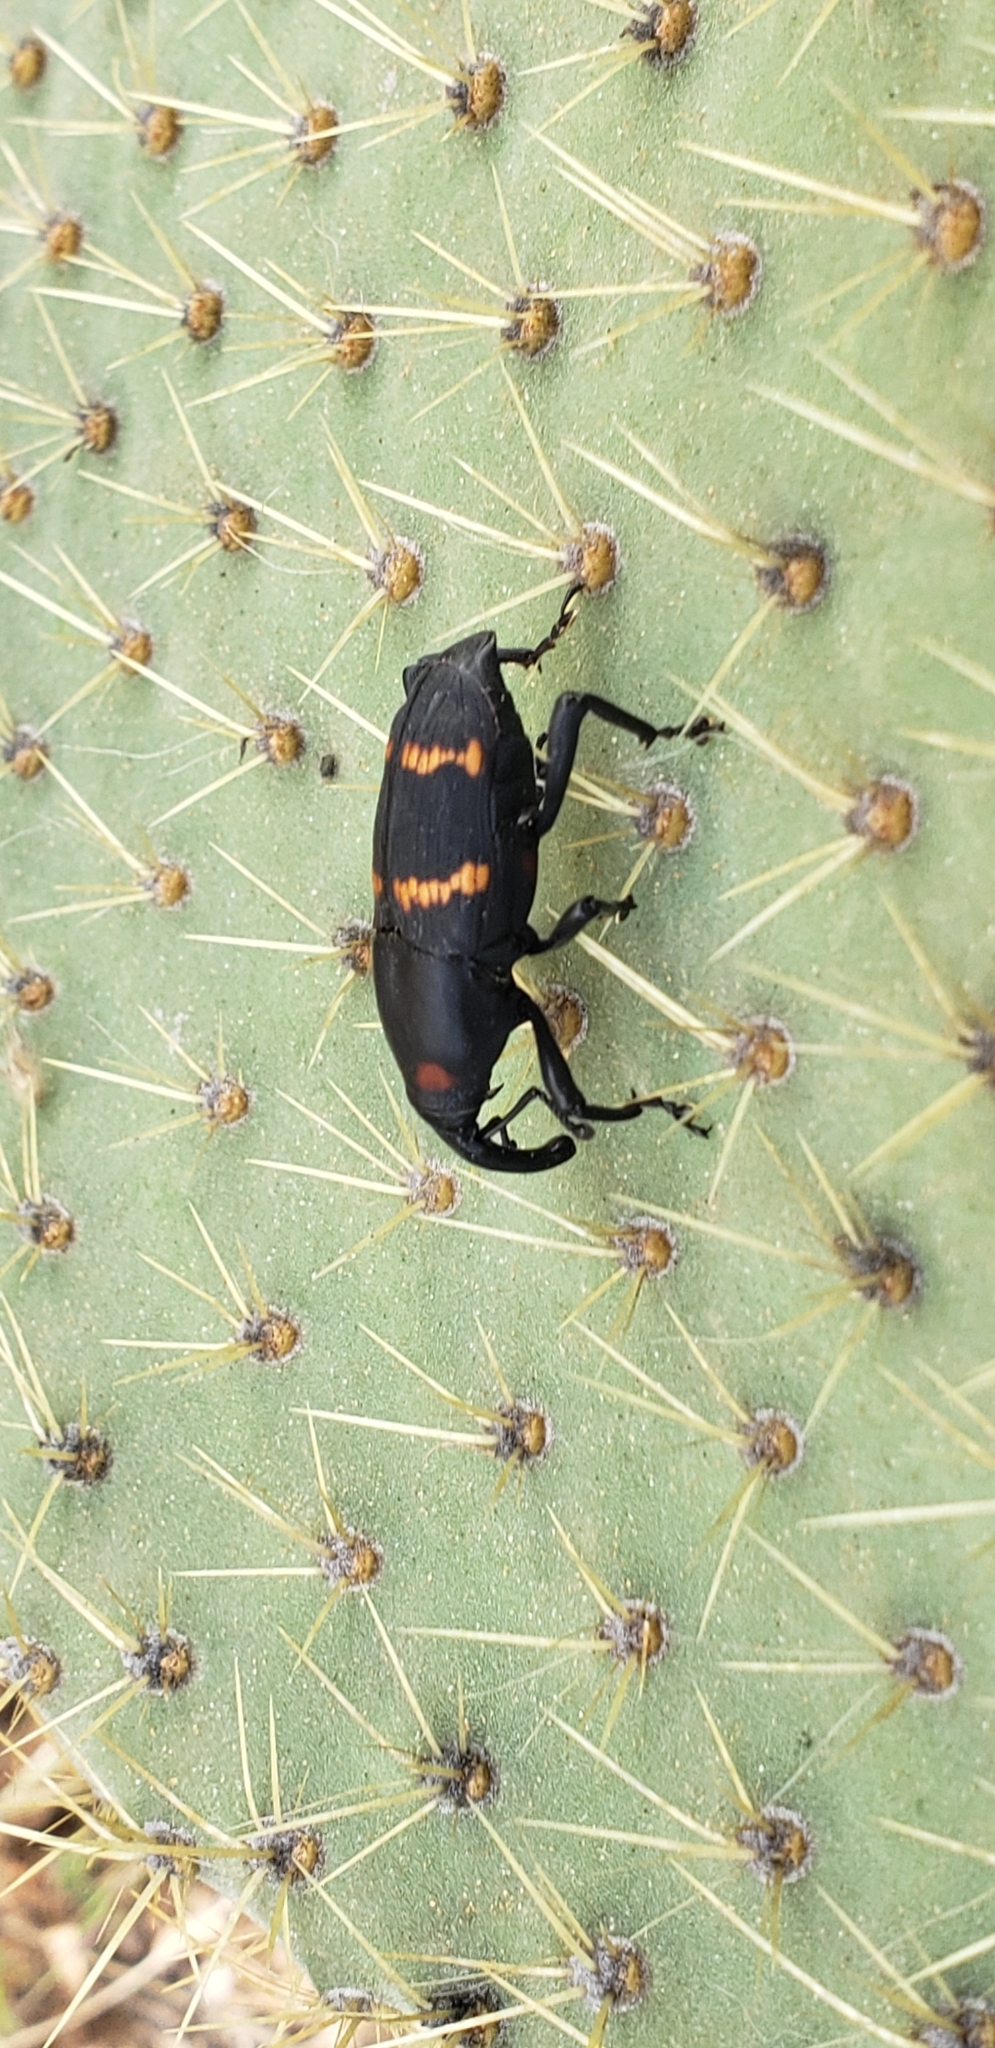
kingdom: Animalia
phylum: Arthropoda
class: Insecta
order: Coleoptera
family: Dryophthoridae
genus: Cactophagus
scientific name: Cactophagus spinolae
